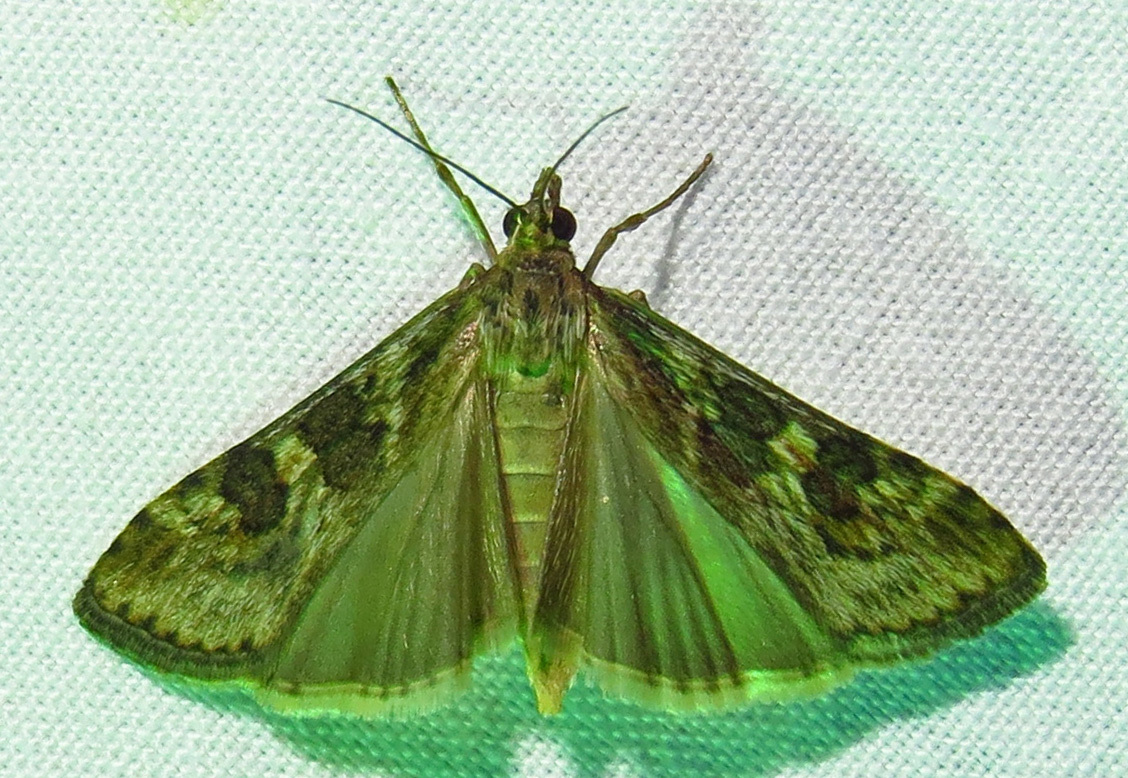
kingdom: Animalia
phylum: Arthropoda
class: Insecta
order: Lepidoptera
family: Crambidae
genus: Nomophila
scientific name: Nomophila nearctica
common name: American rush veneer
